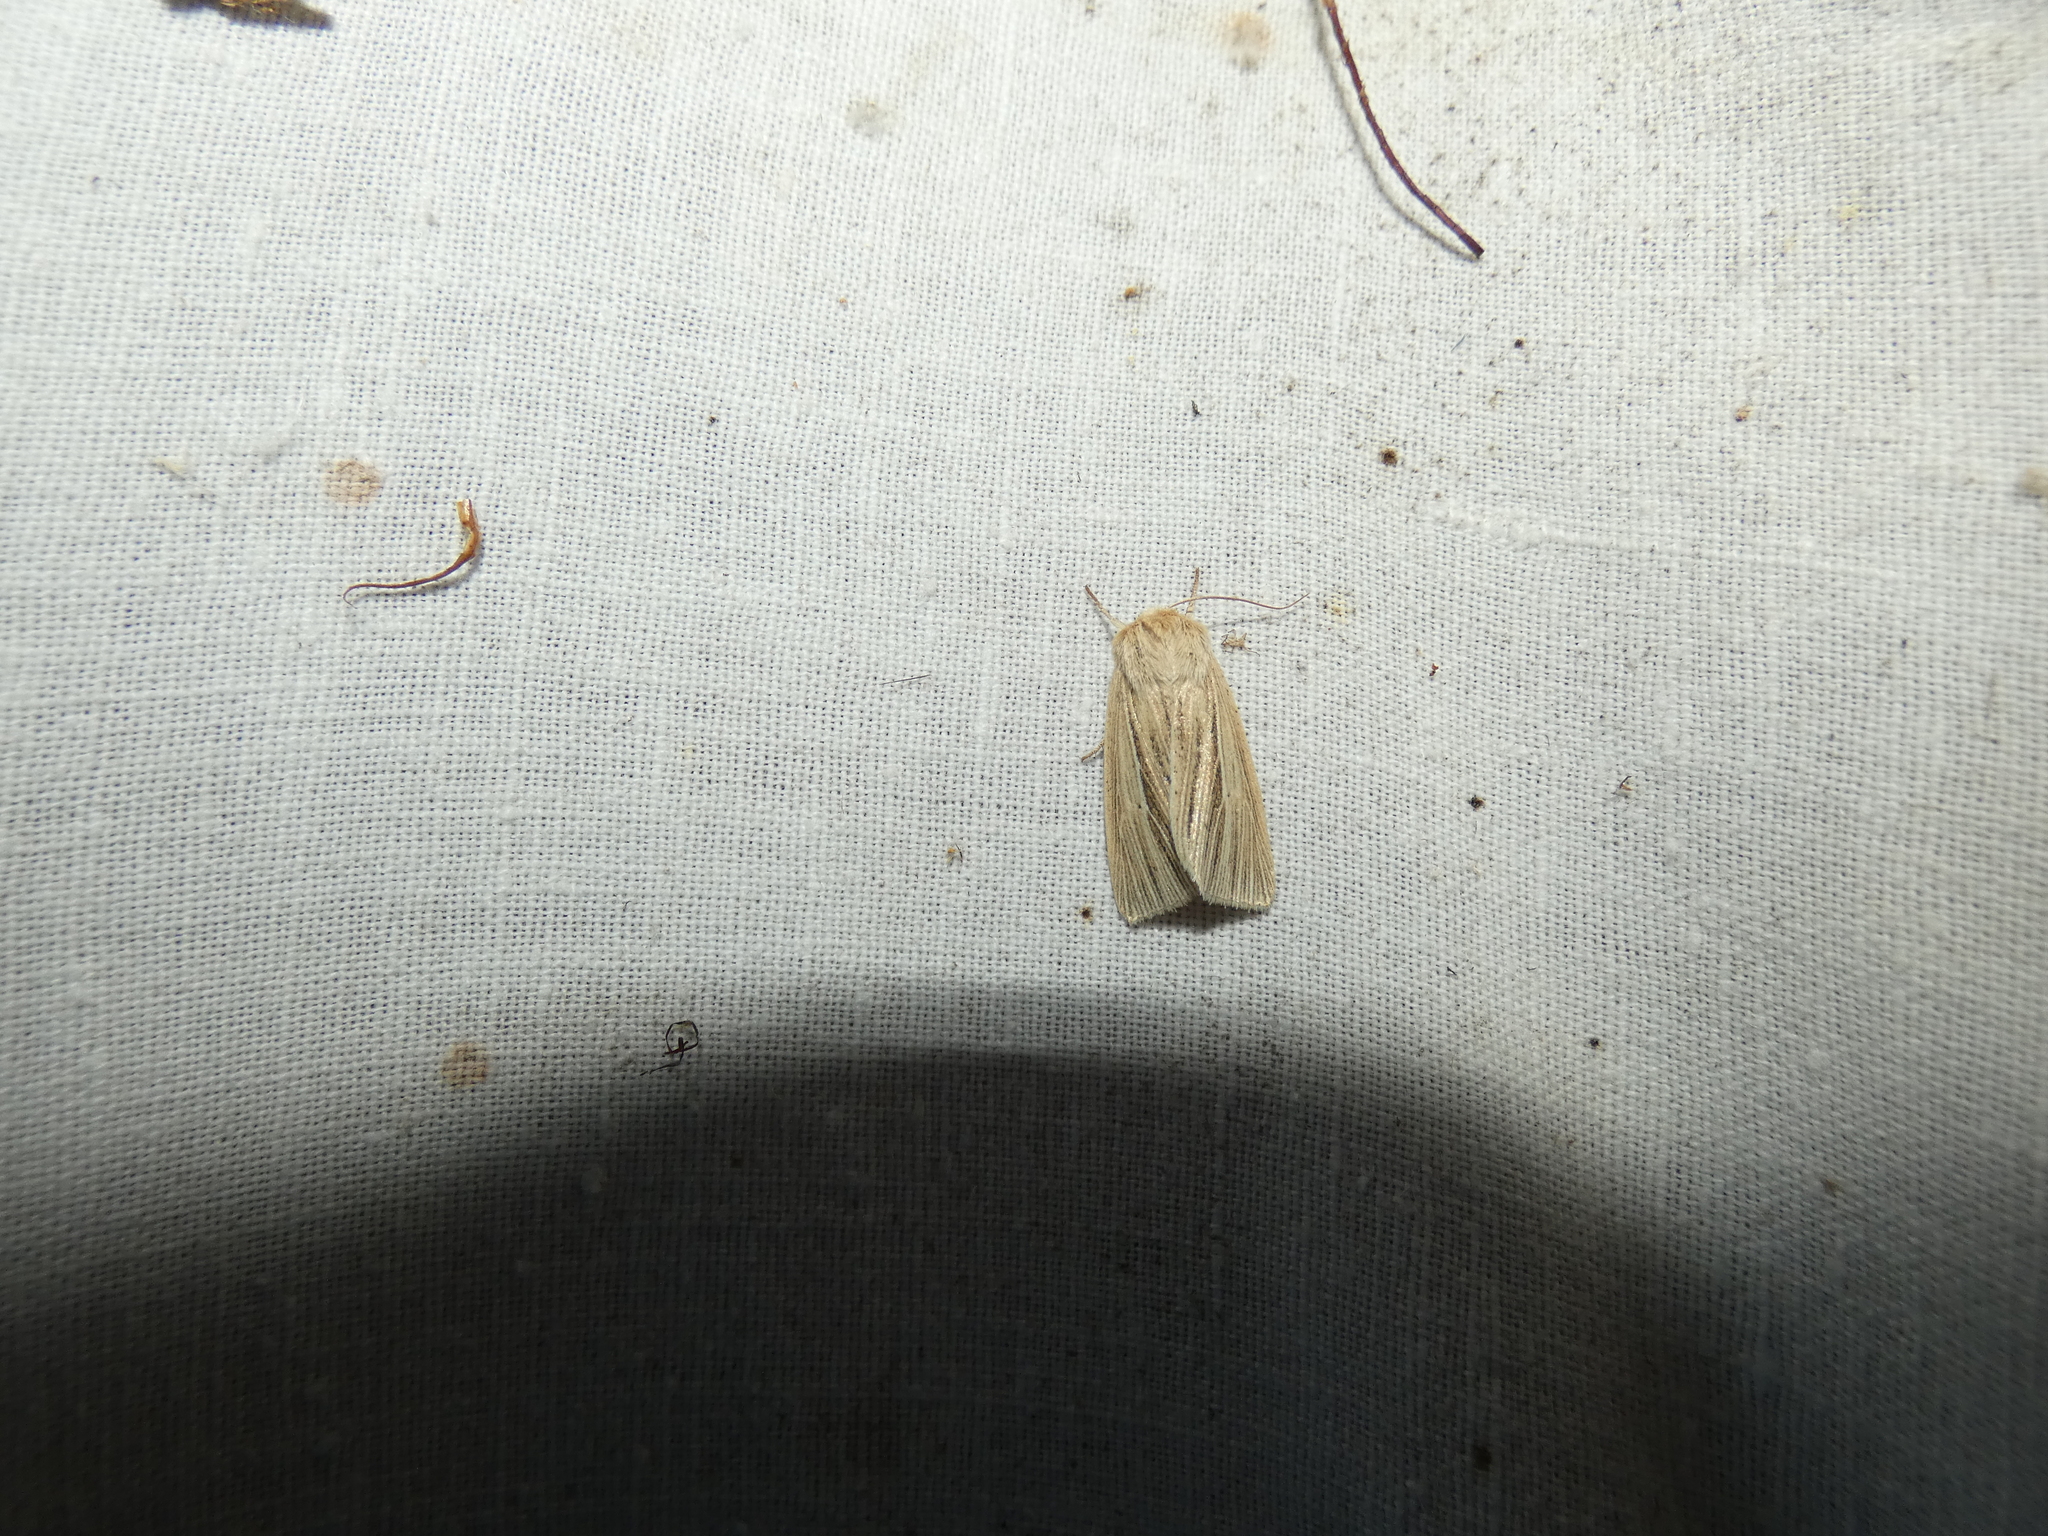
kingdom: Animalia
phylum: Arthropoda
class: Insecta
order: Lepidoptera
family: Noctuidae
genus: Mythimna
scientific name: Mythimna impura
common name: Smoky wainscot
